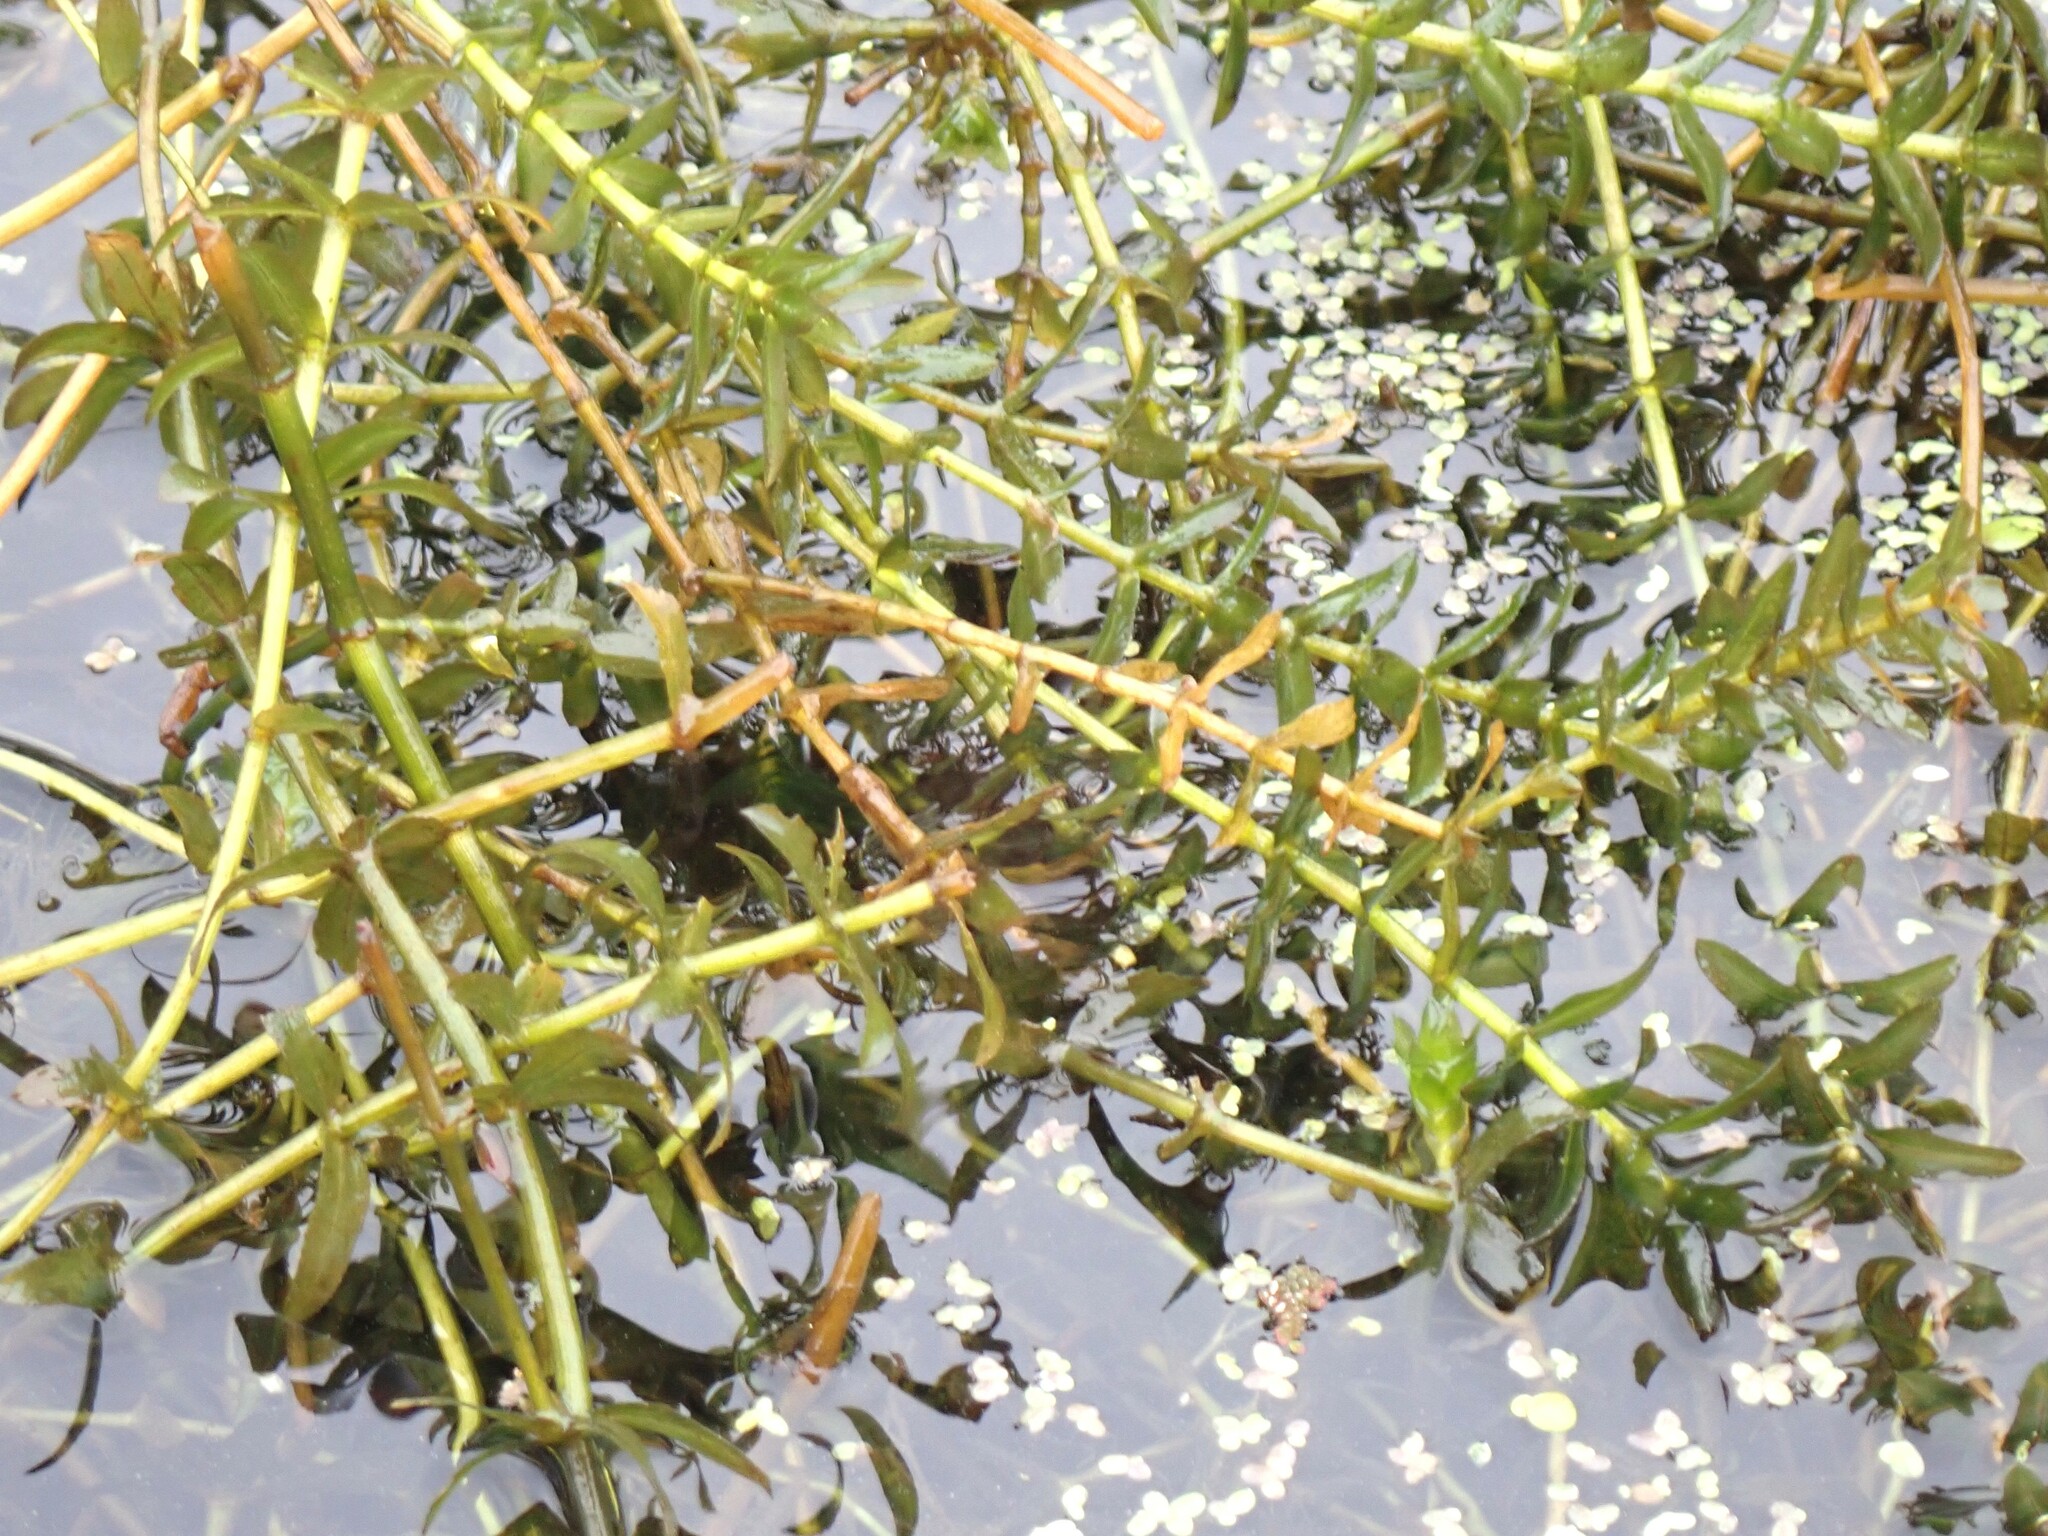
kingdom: Plantae
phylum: Tracheophyta
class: Liliopsida
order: Alismatales
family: Hydrocharitaceae
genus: Hydrilla
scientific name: Hydrilla verticillata
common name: Florida-elodea
